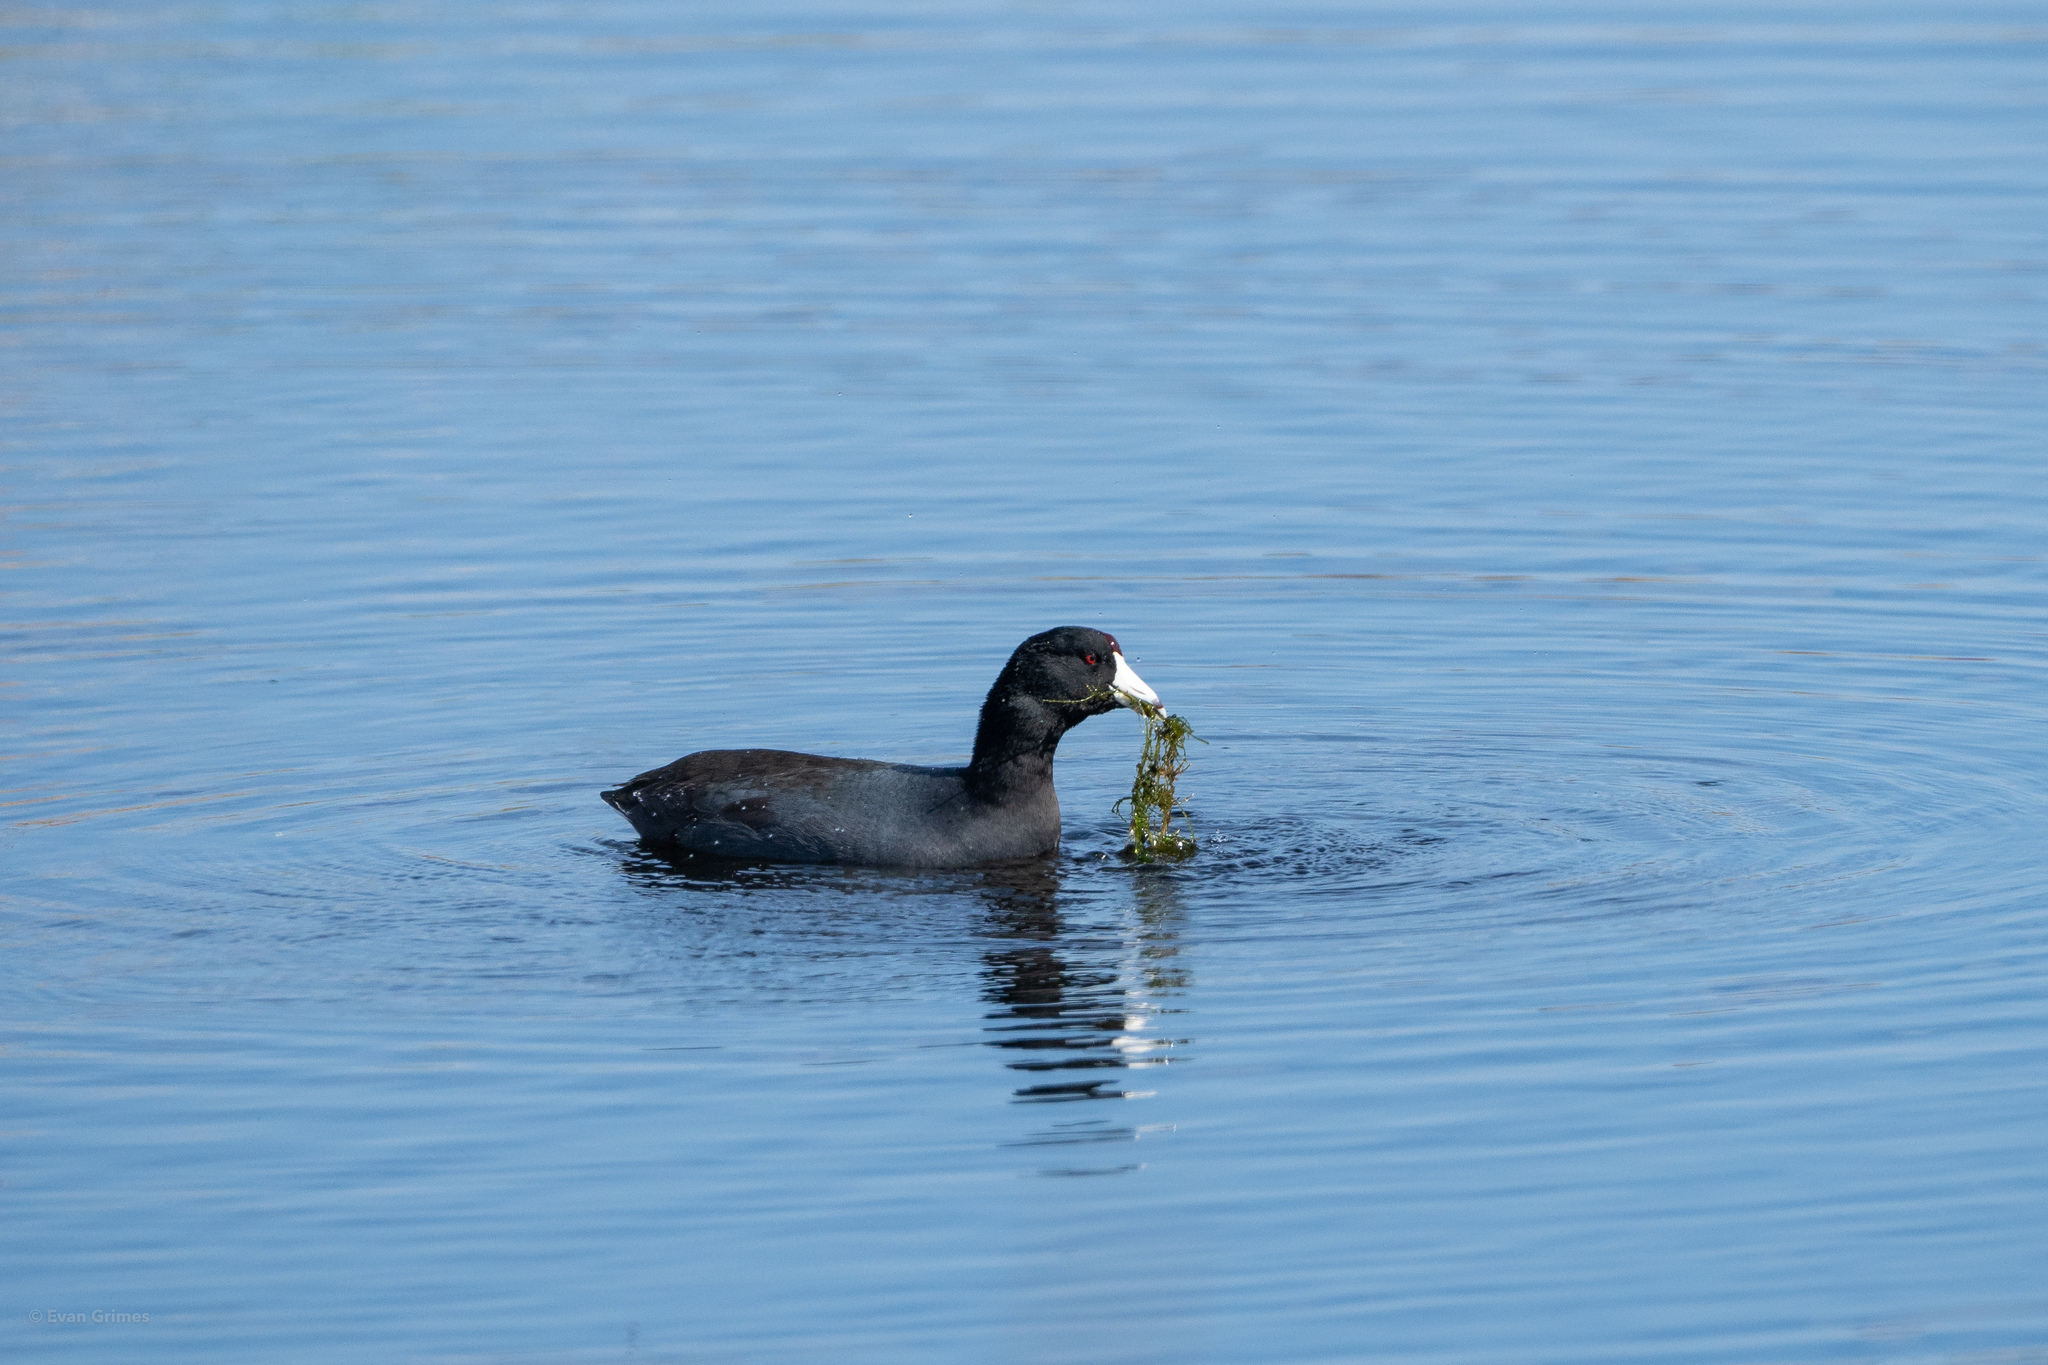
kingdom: Animalia
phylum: Chordata
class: Aves
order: Gruiformes
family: Rallidae
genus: Fulica
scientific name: Fulica americana
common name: American coot
